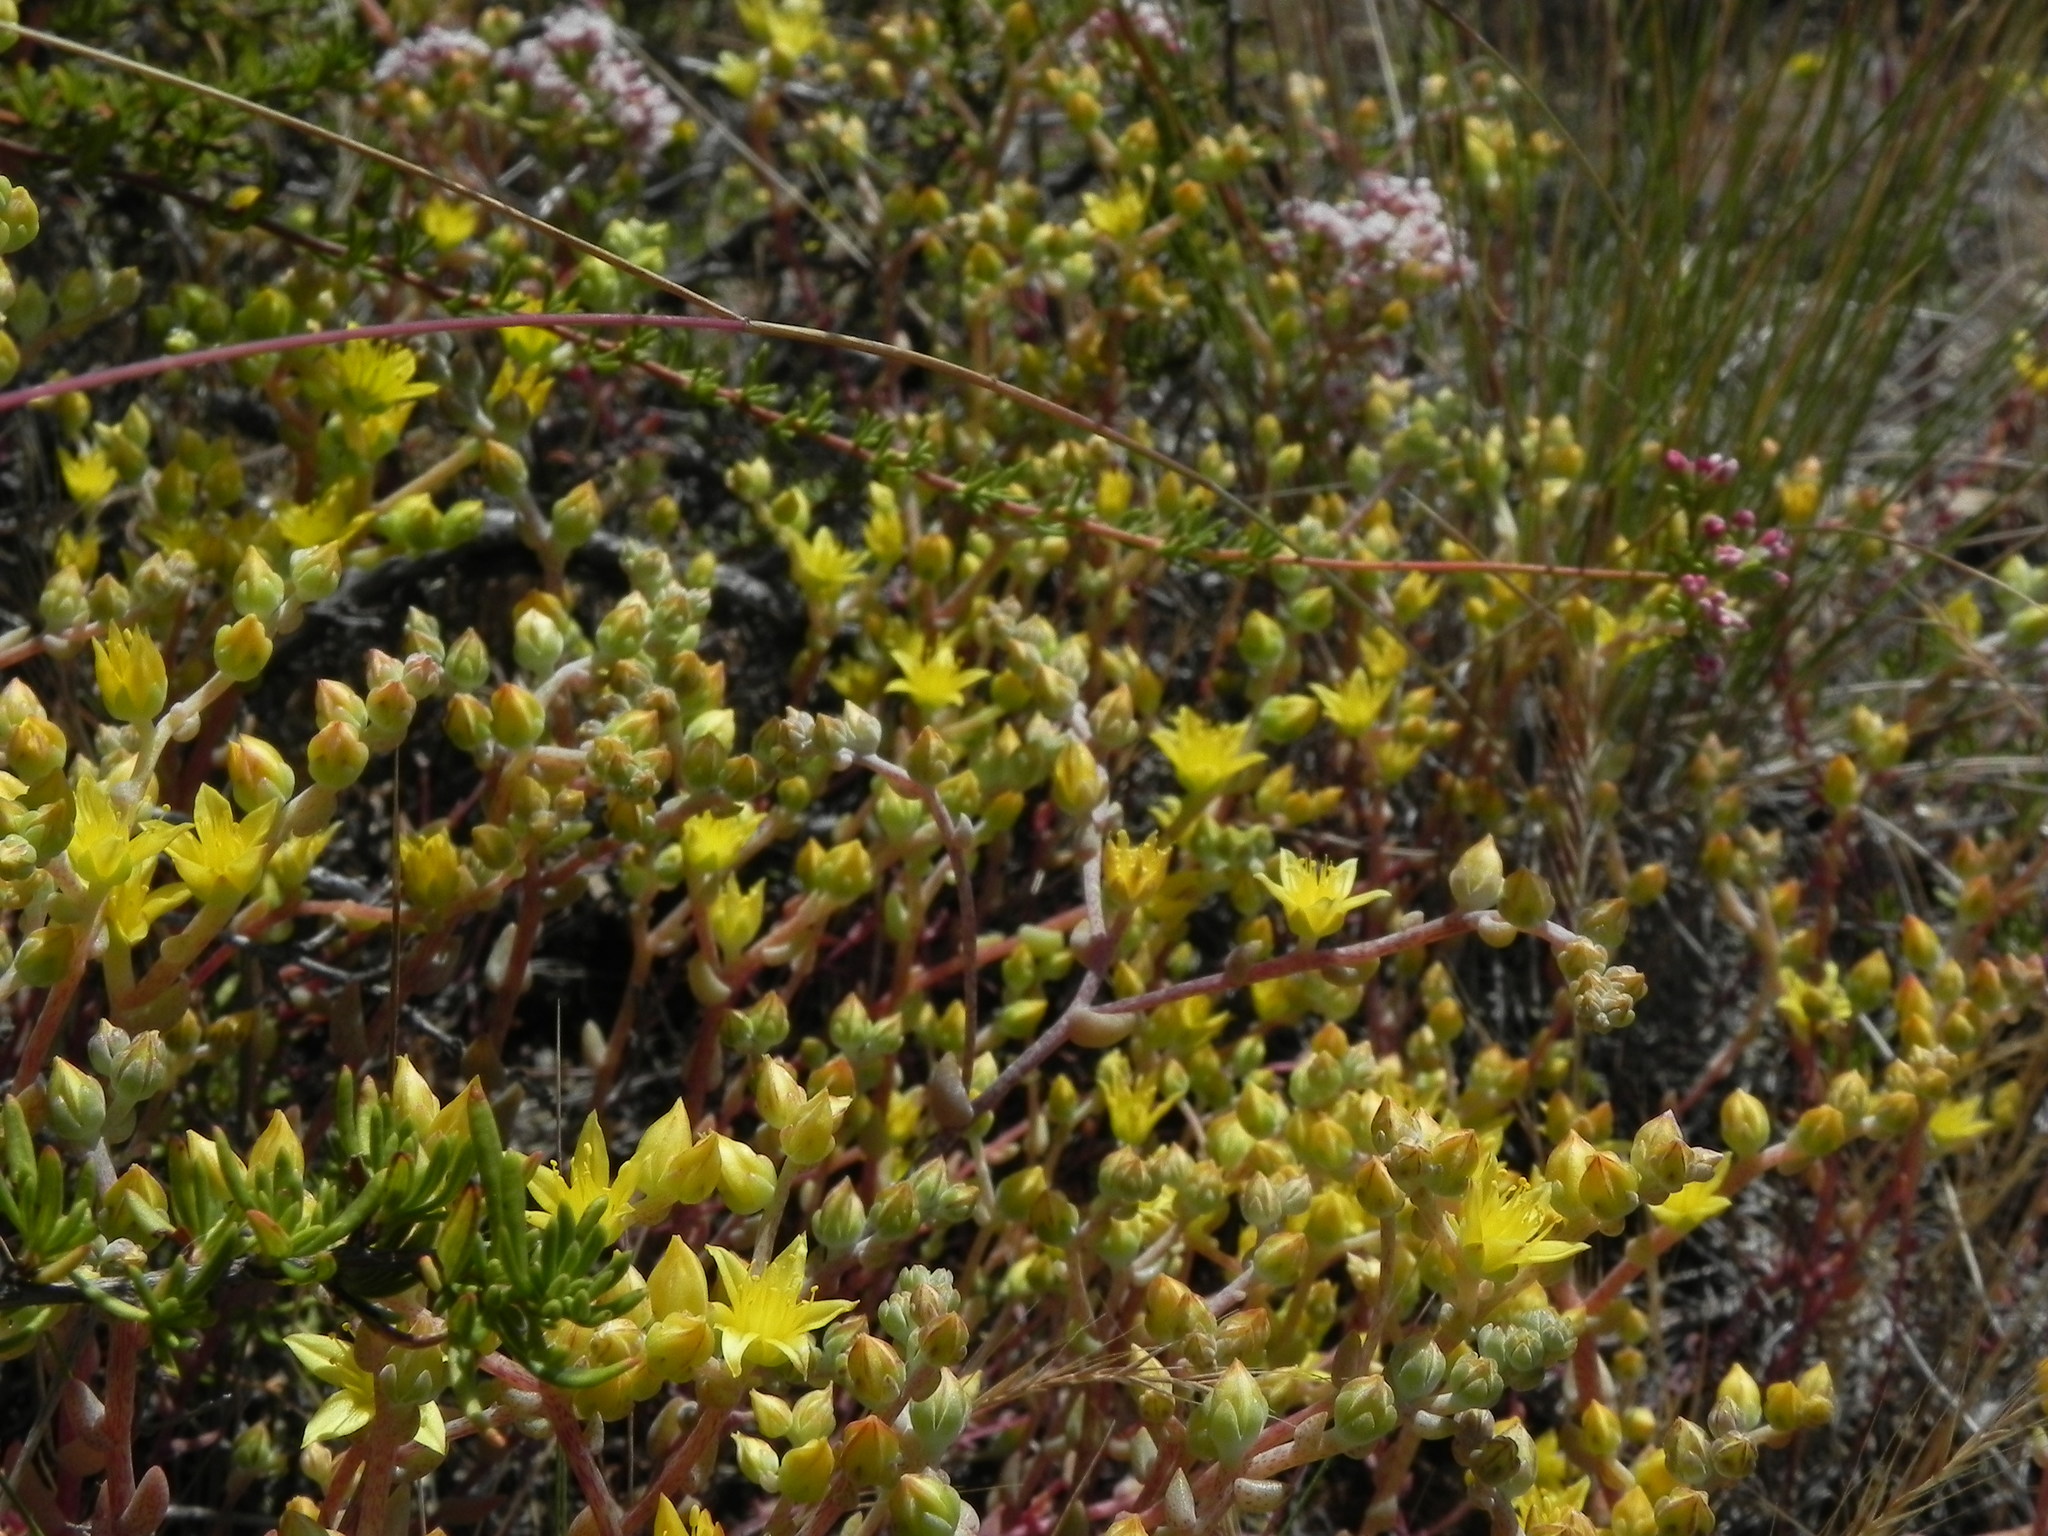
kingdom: Plantae
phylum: Tracheophyta
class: Magnoliopsida
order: Saxifragales
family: Crassulaceae
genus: Dudleya
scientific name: Dudleya variegata
